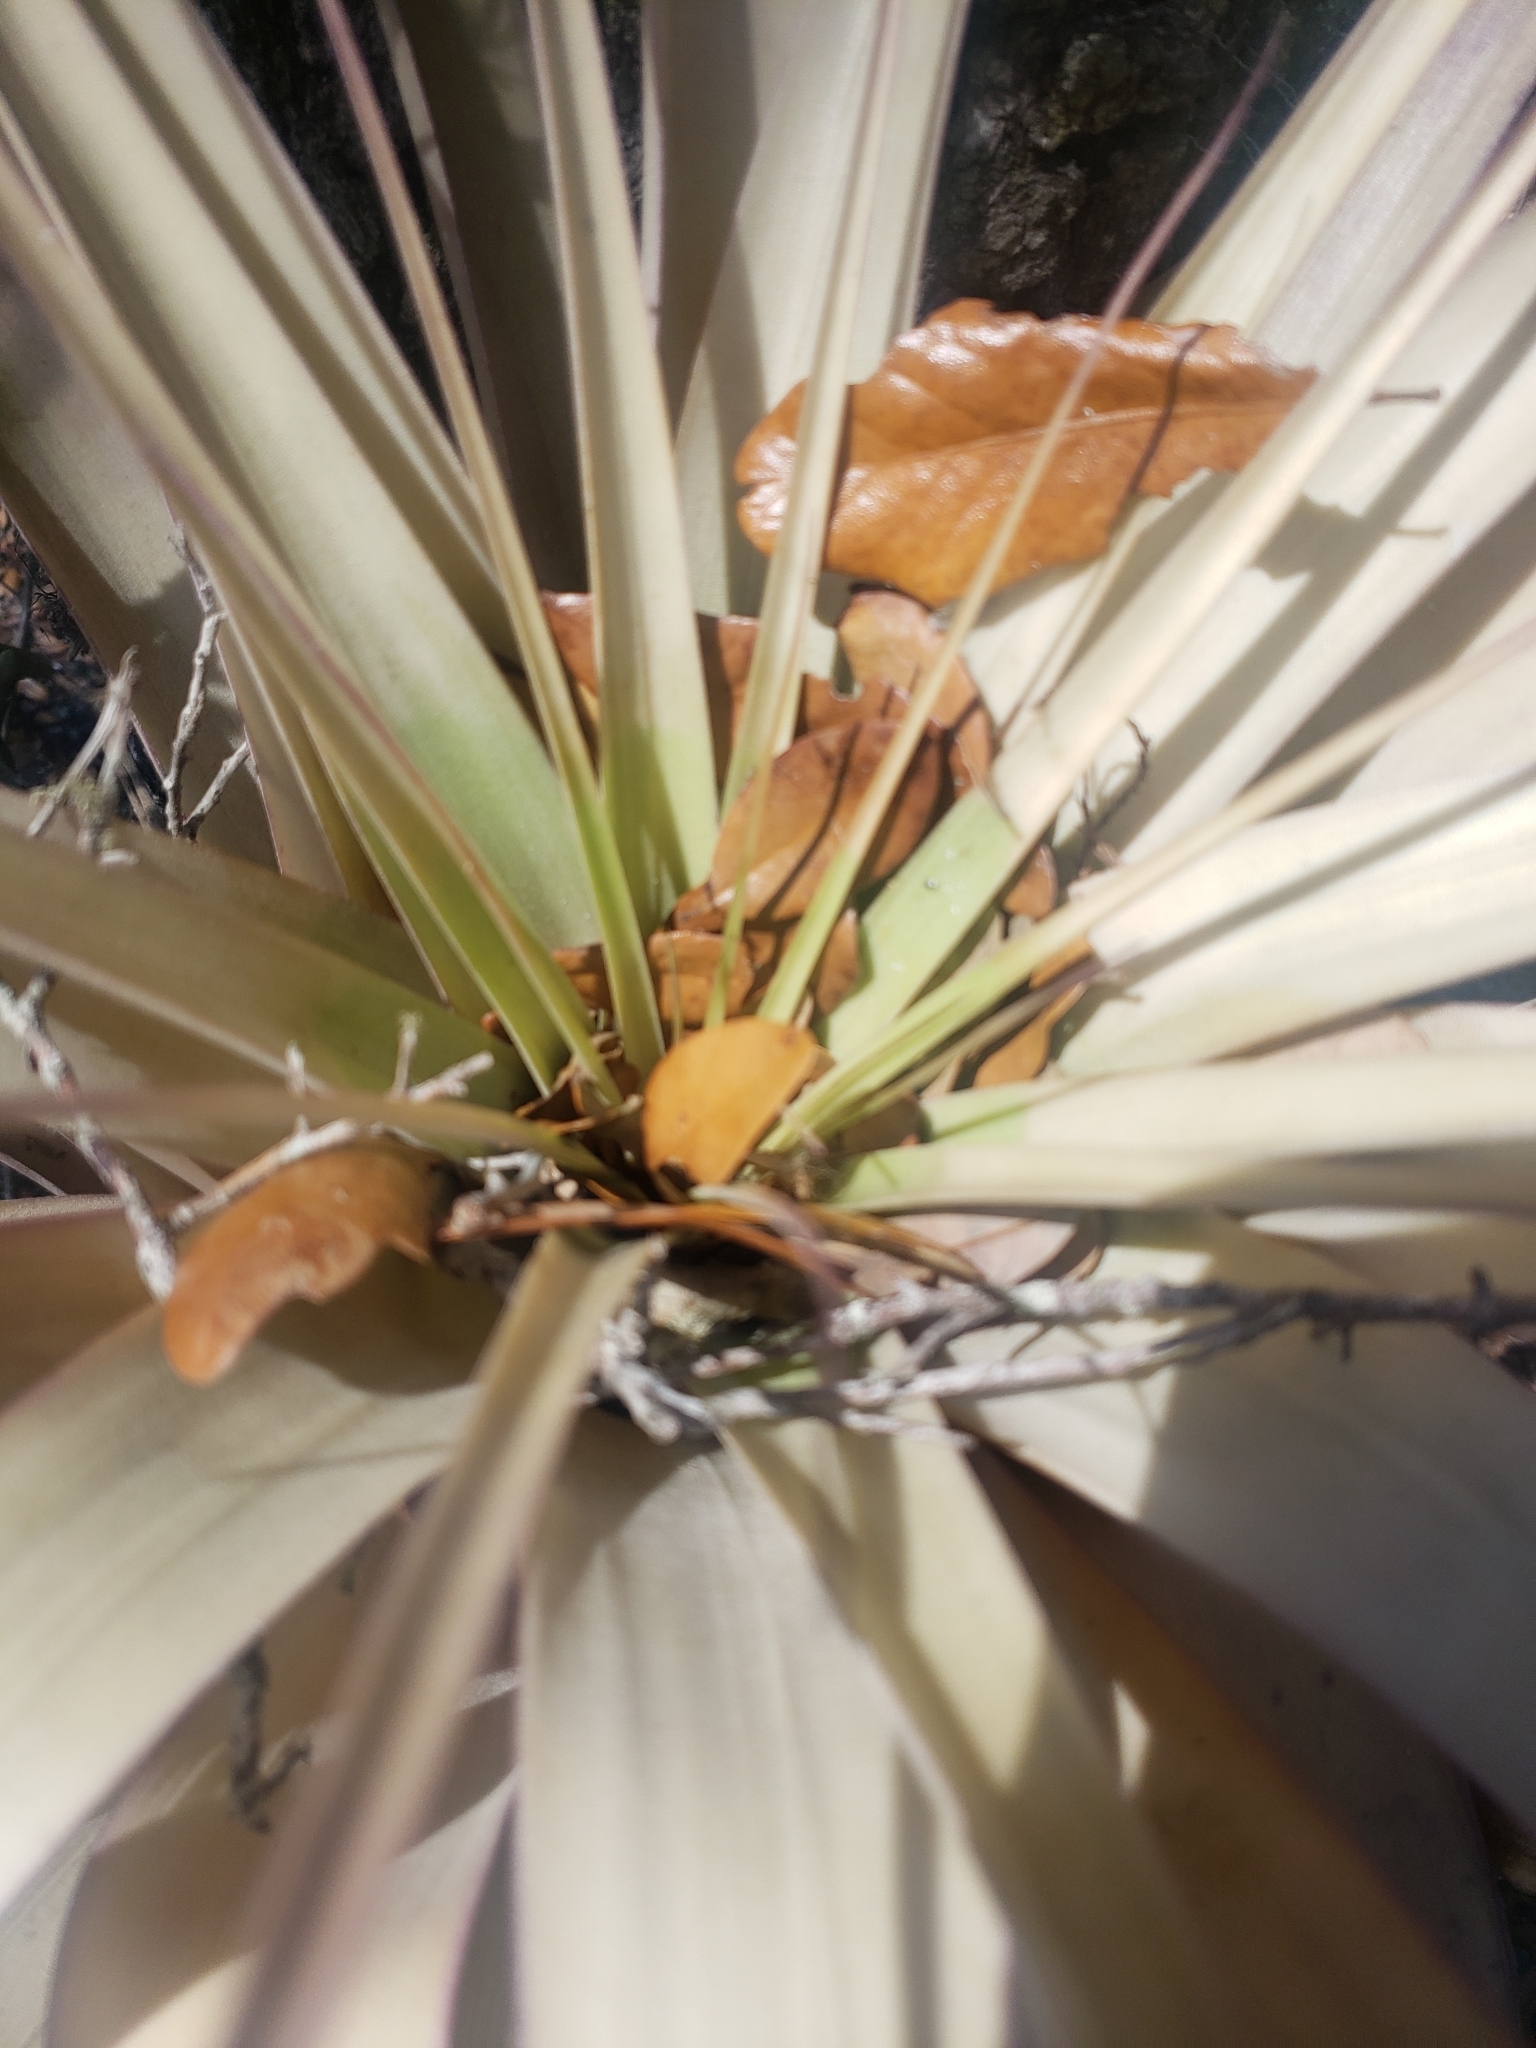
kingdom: Plantae
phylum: Tracheophyta
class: Liliopsida
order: Poales
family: Bromeliaceae
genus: Tillandsia
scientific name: Tillandsia utriculata
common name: Wild pine
